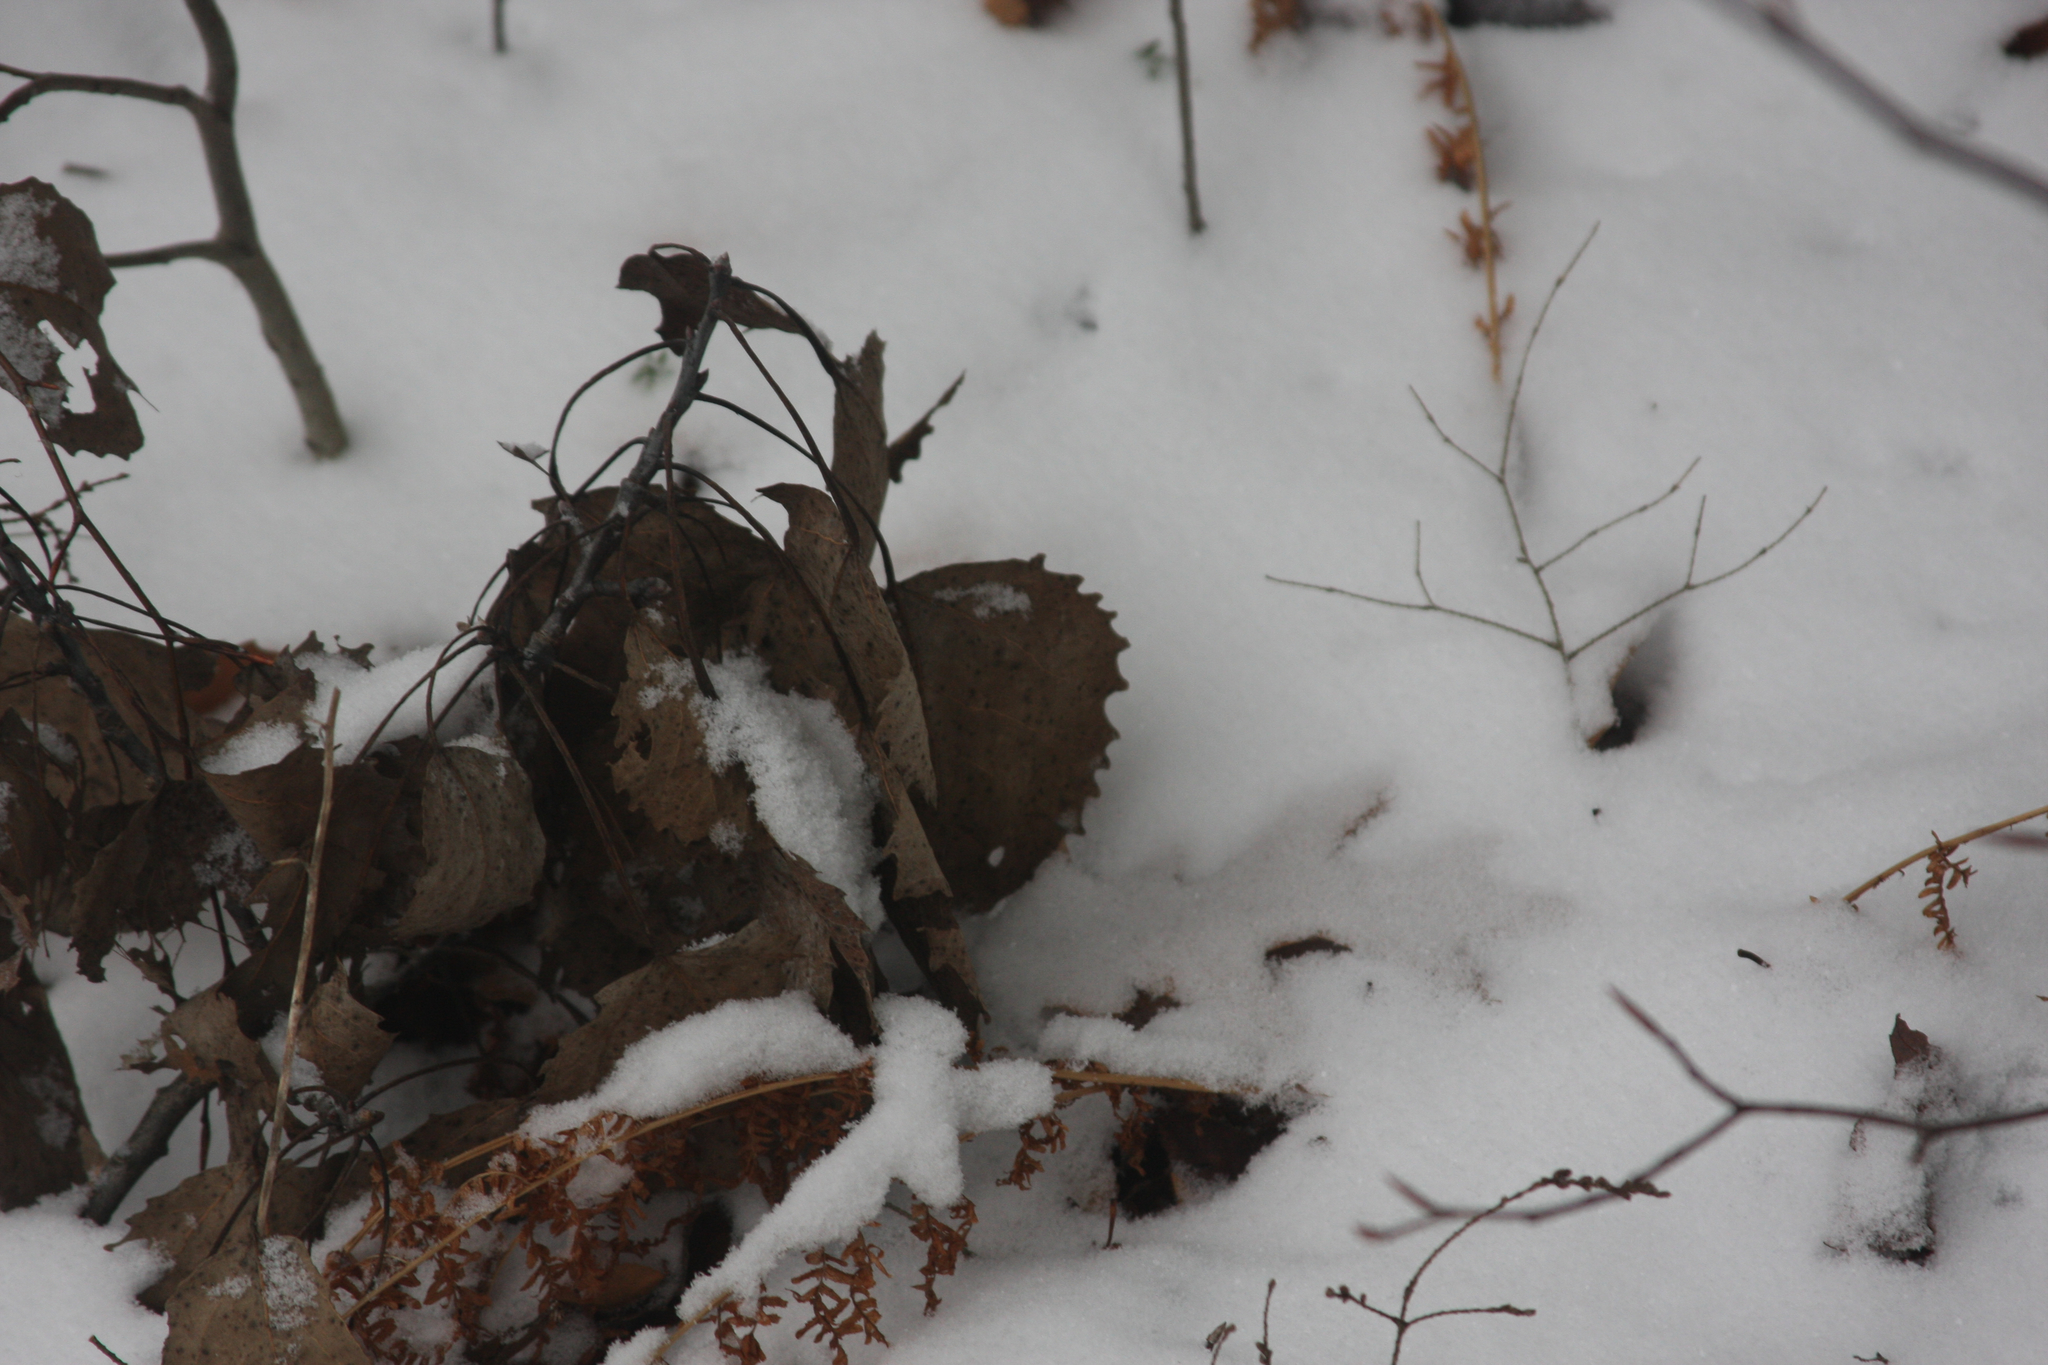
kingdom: Plantae
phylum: Tracheophyta
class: Magnoliopsida
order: Malpighiales
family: Salicaceae
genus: Populus
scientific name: Populus grandidentata
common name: Bigtooth aspen
